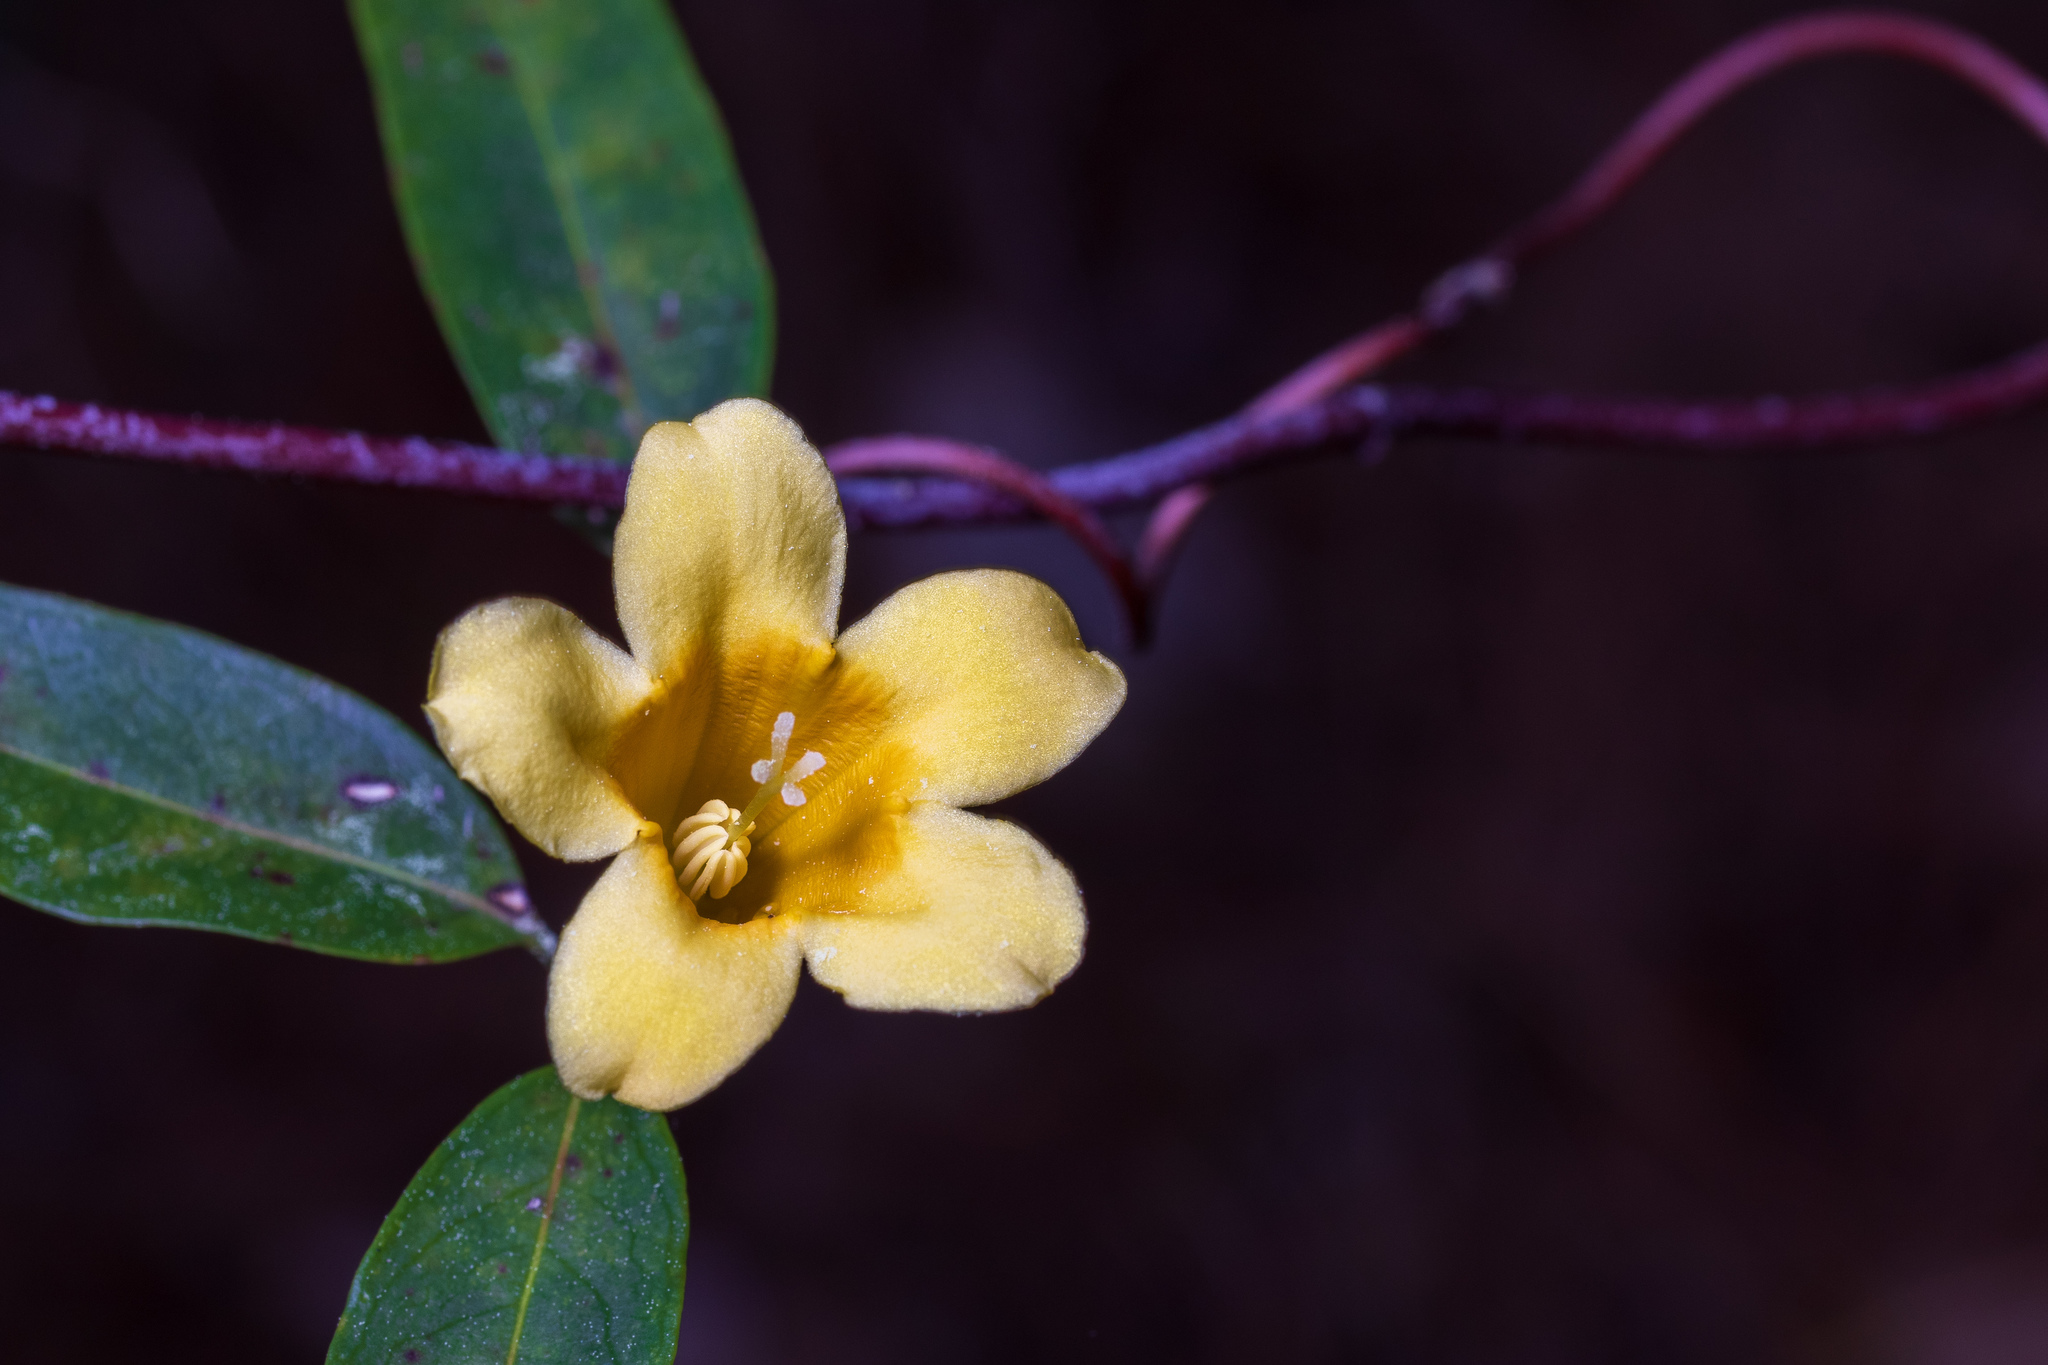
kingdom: Plantae
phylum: Tracheophyta
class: Magnoliopsida
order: Gentianales
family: Gelsemiaceae
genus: Gelsemium
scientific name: Gelsemium sempervirens
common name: Carolina-jasmine
